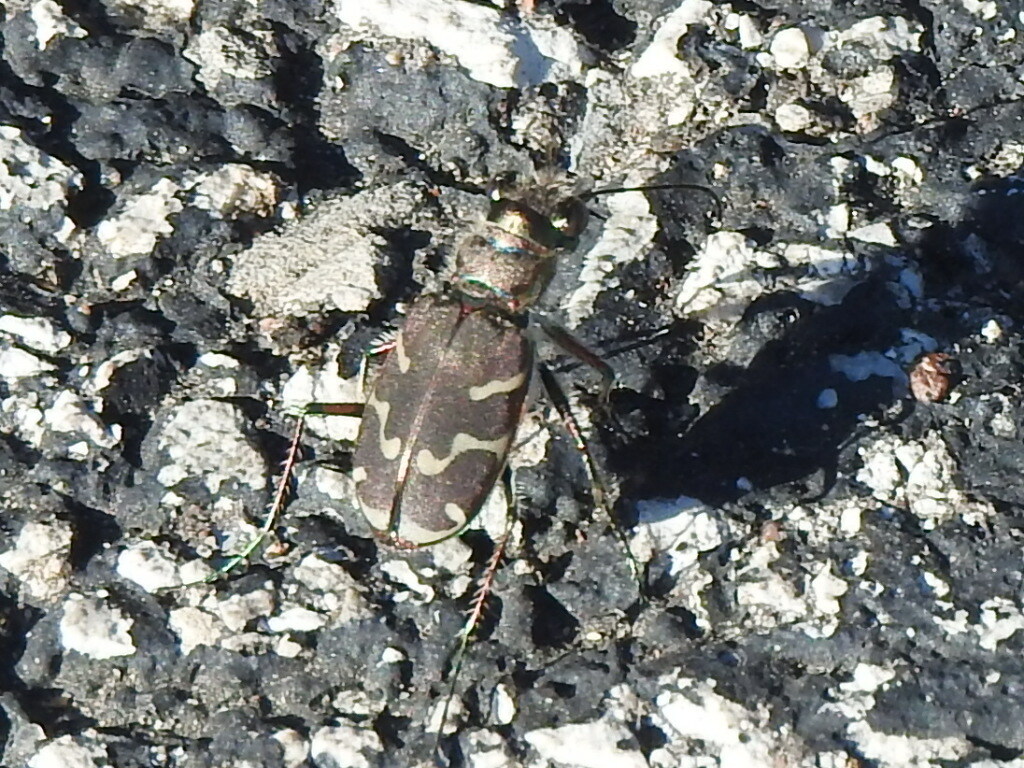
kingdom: Animalia
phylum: Arthropoda
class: Insecta
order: Coleoptera
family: Carabidae
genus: Cicindela
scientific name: Cicindela tranquebarica
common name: Oblique-lined tiger beetle
